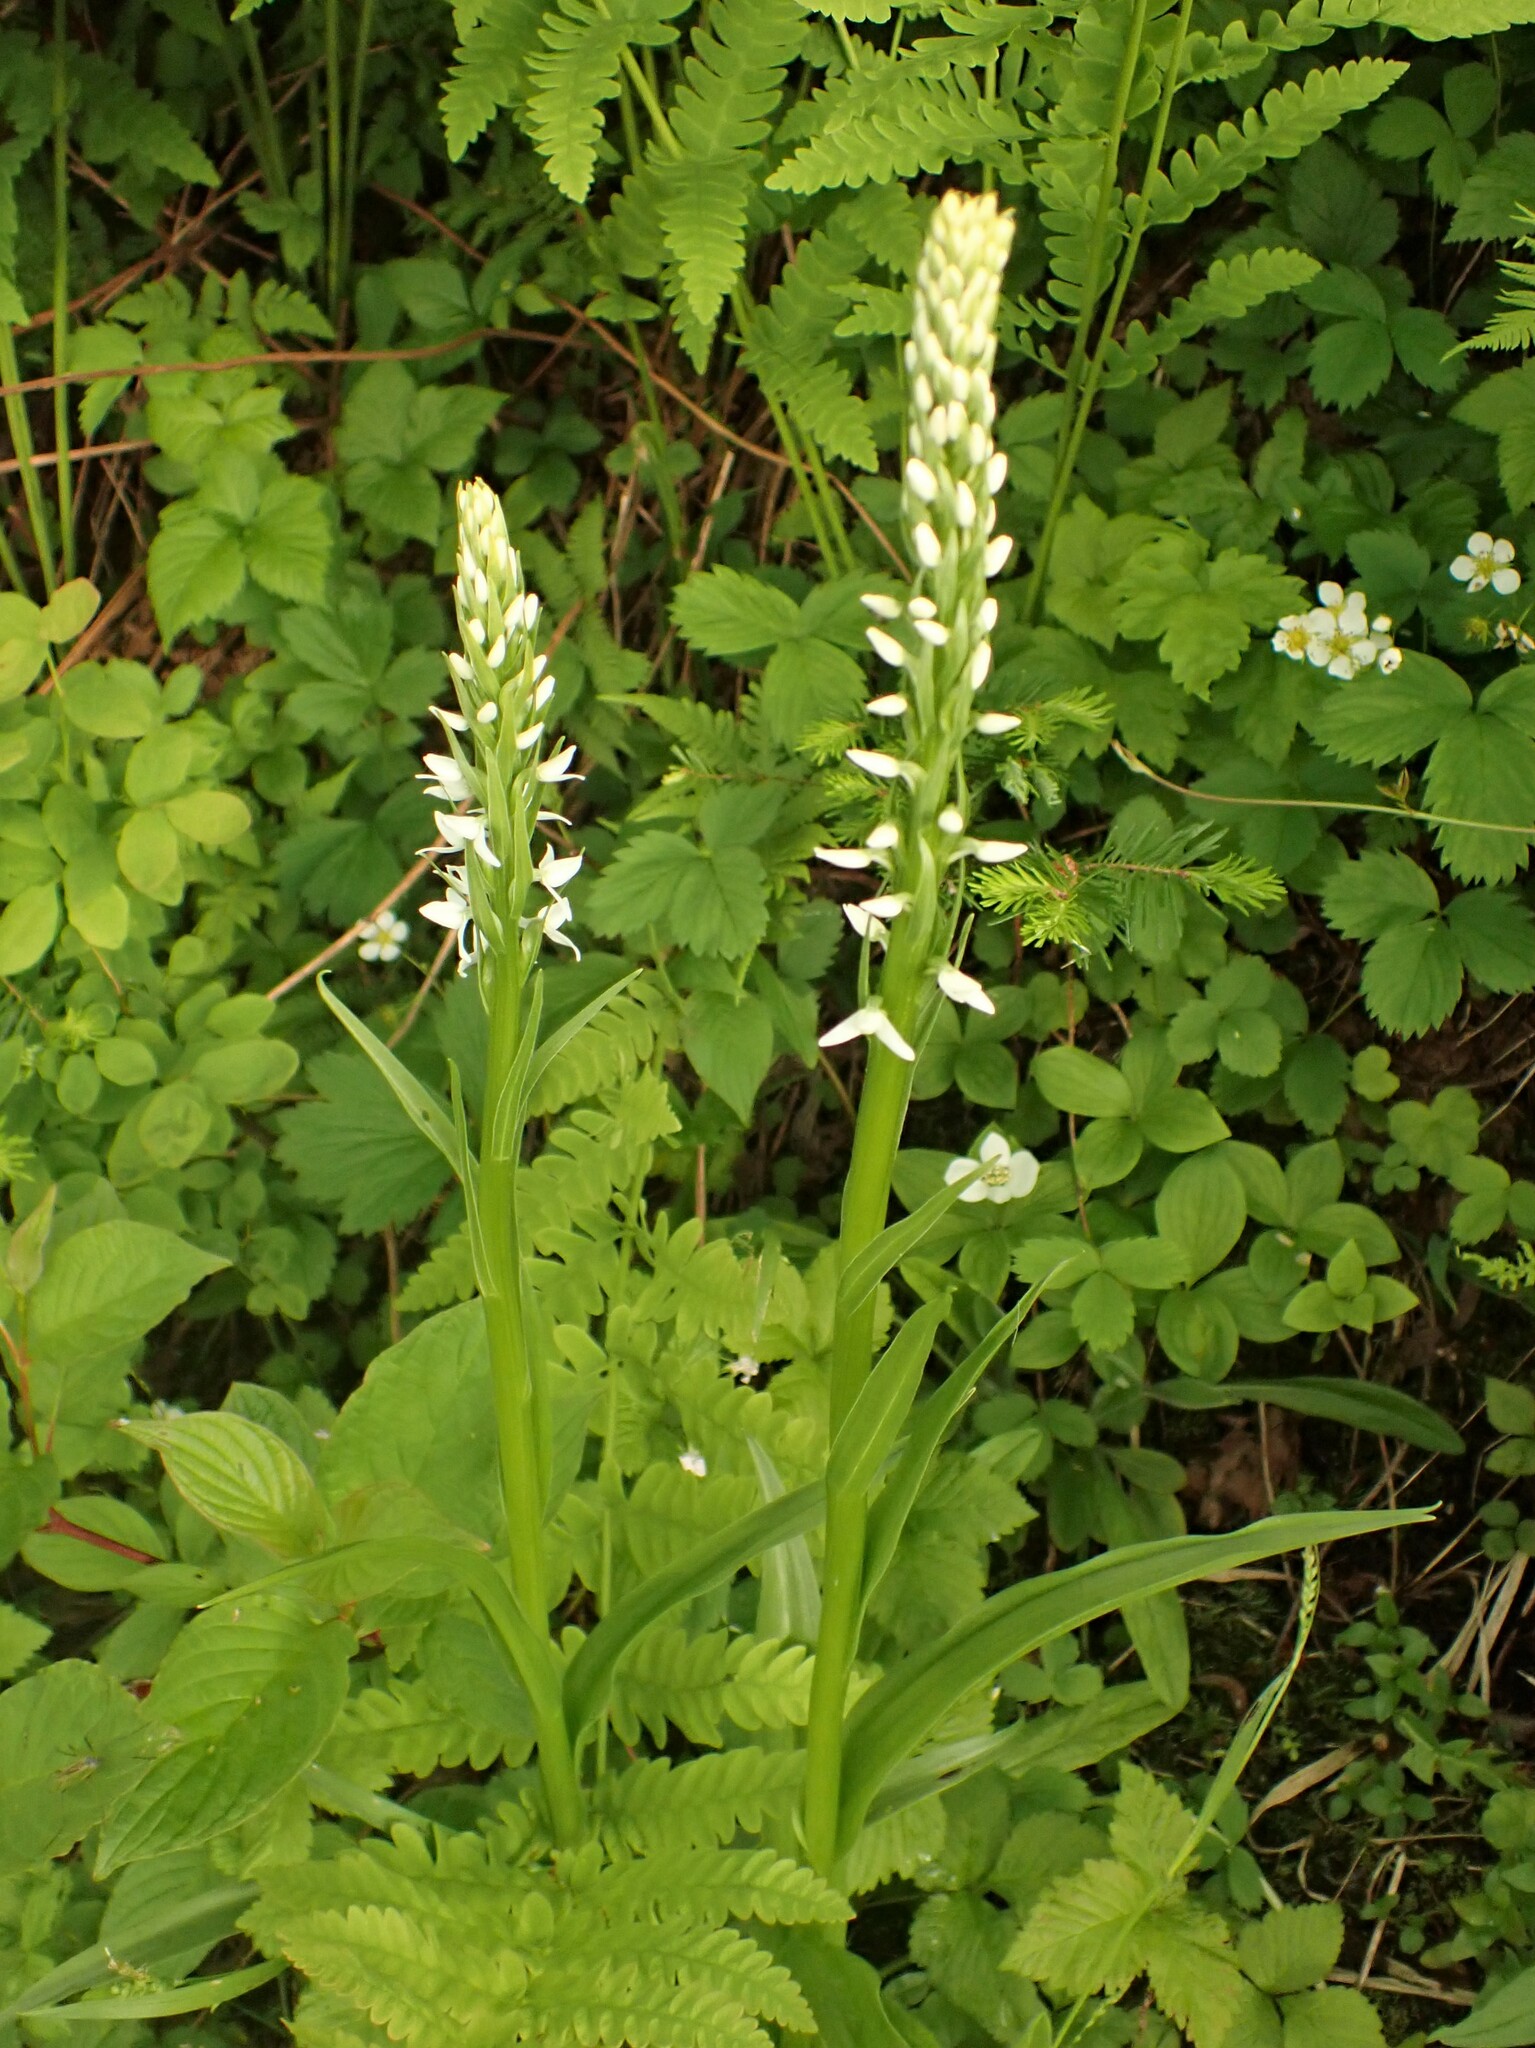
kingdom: Plantae
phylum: Tracheophyta
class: Liliopsida
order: Asparagales
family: Orchidaceae
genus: Platanthera
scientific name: Platanthera dilatata
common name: Bog candles
